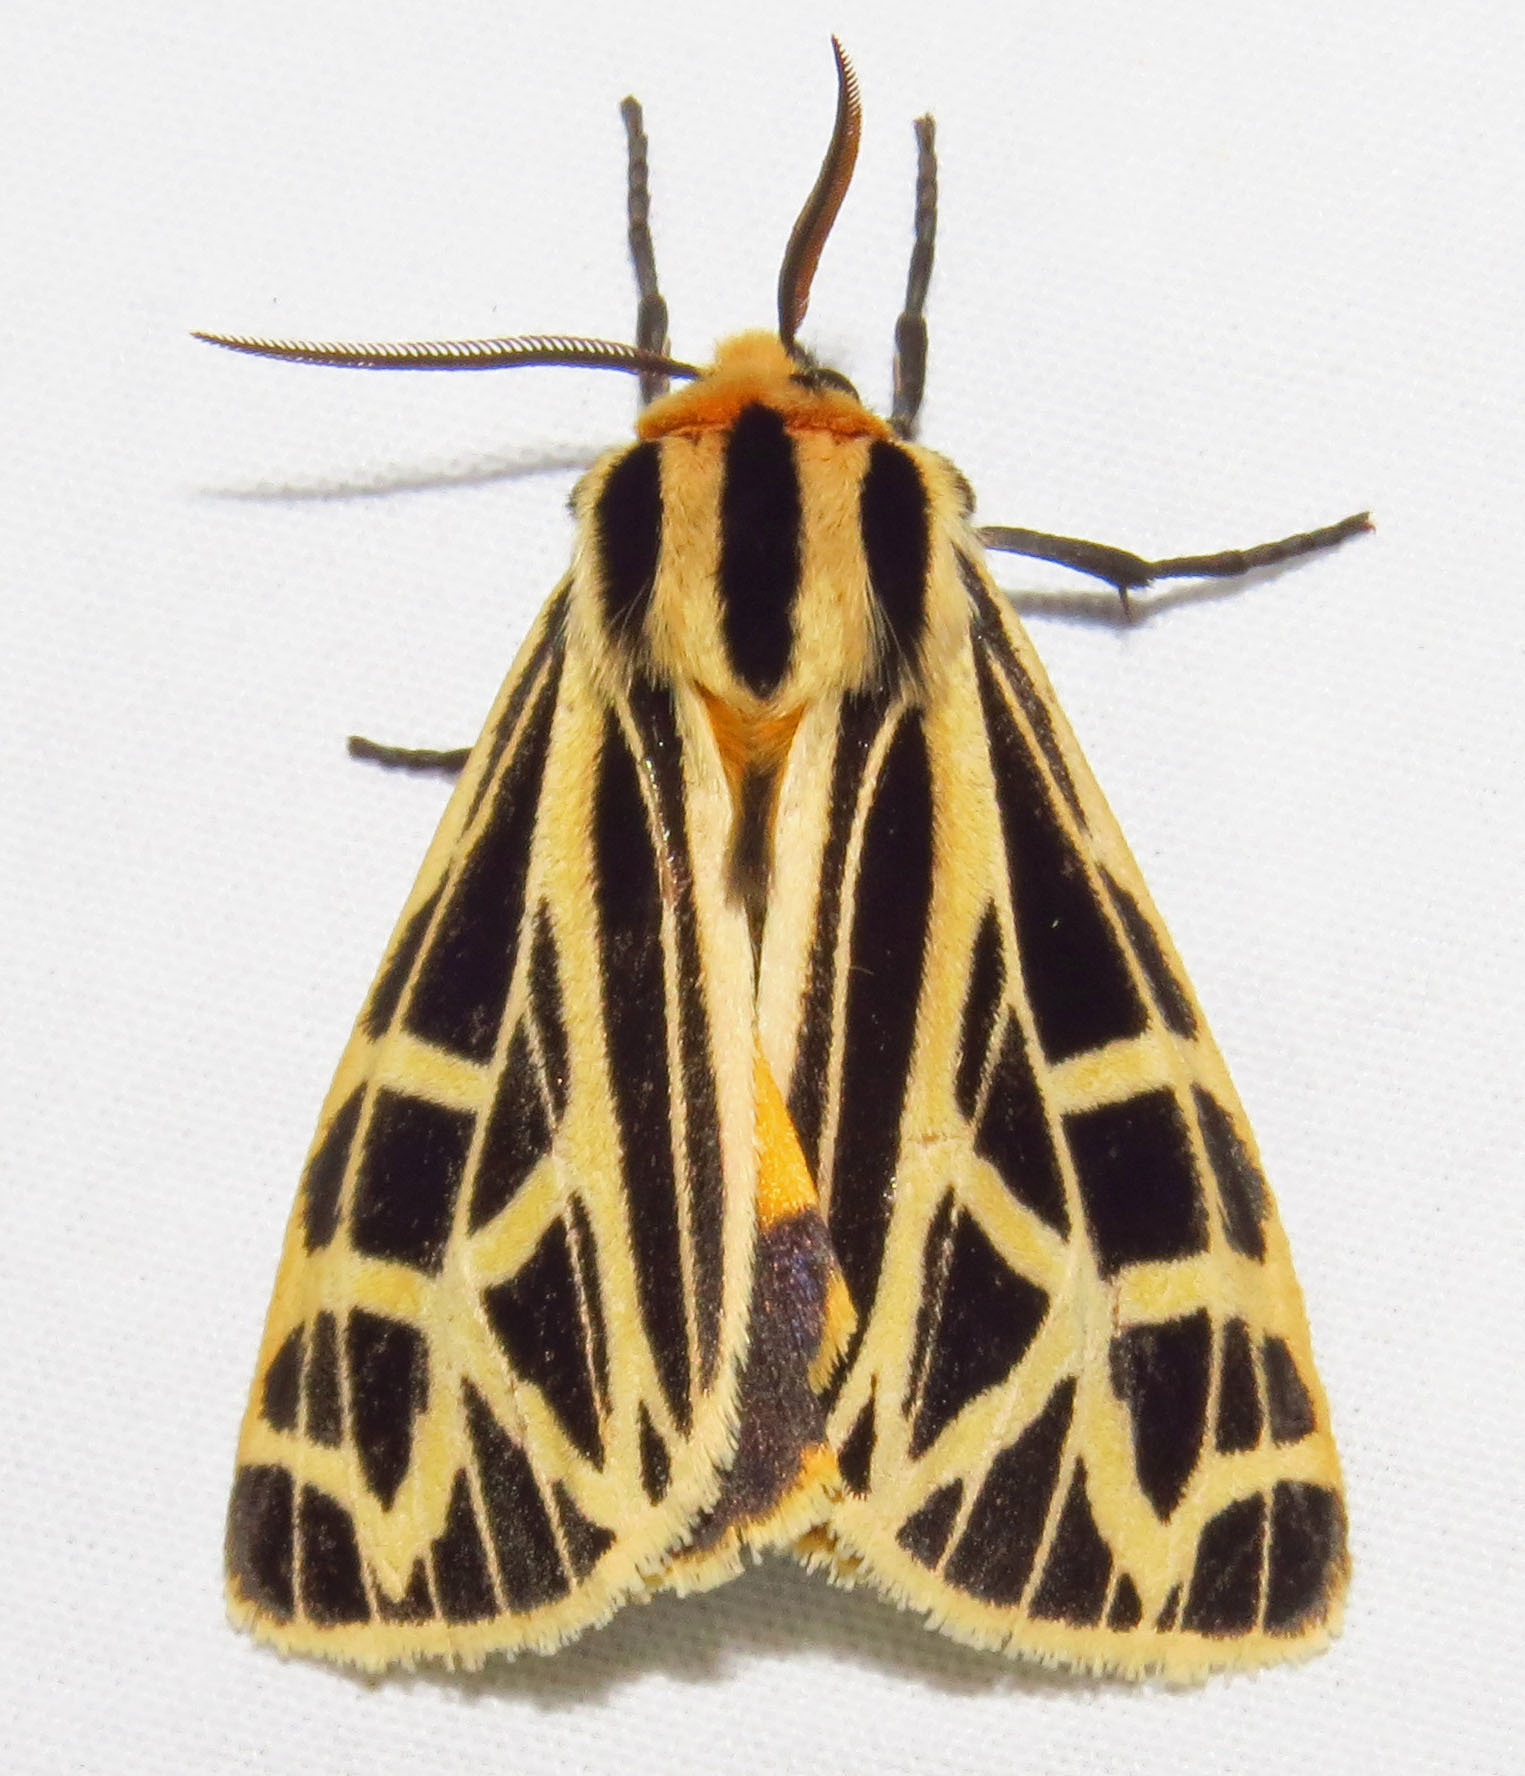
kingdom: Animalia
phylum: Arthropoda
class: Insecta
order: Lepidoptera
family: Erebidae
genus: Apantesis
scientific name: Apantesis
